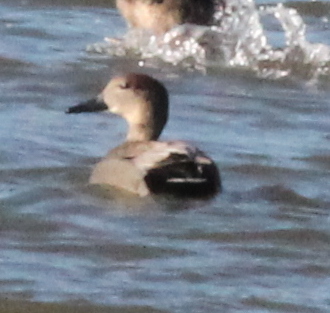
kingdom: Animalia
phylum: Chordata
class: Aves
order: Anseriformes
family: Anatidae
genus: Mareca
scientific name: Mareca strepera
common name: Gadwall
